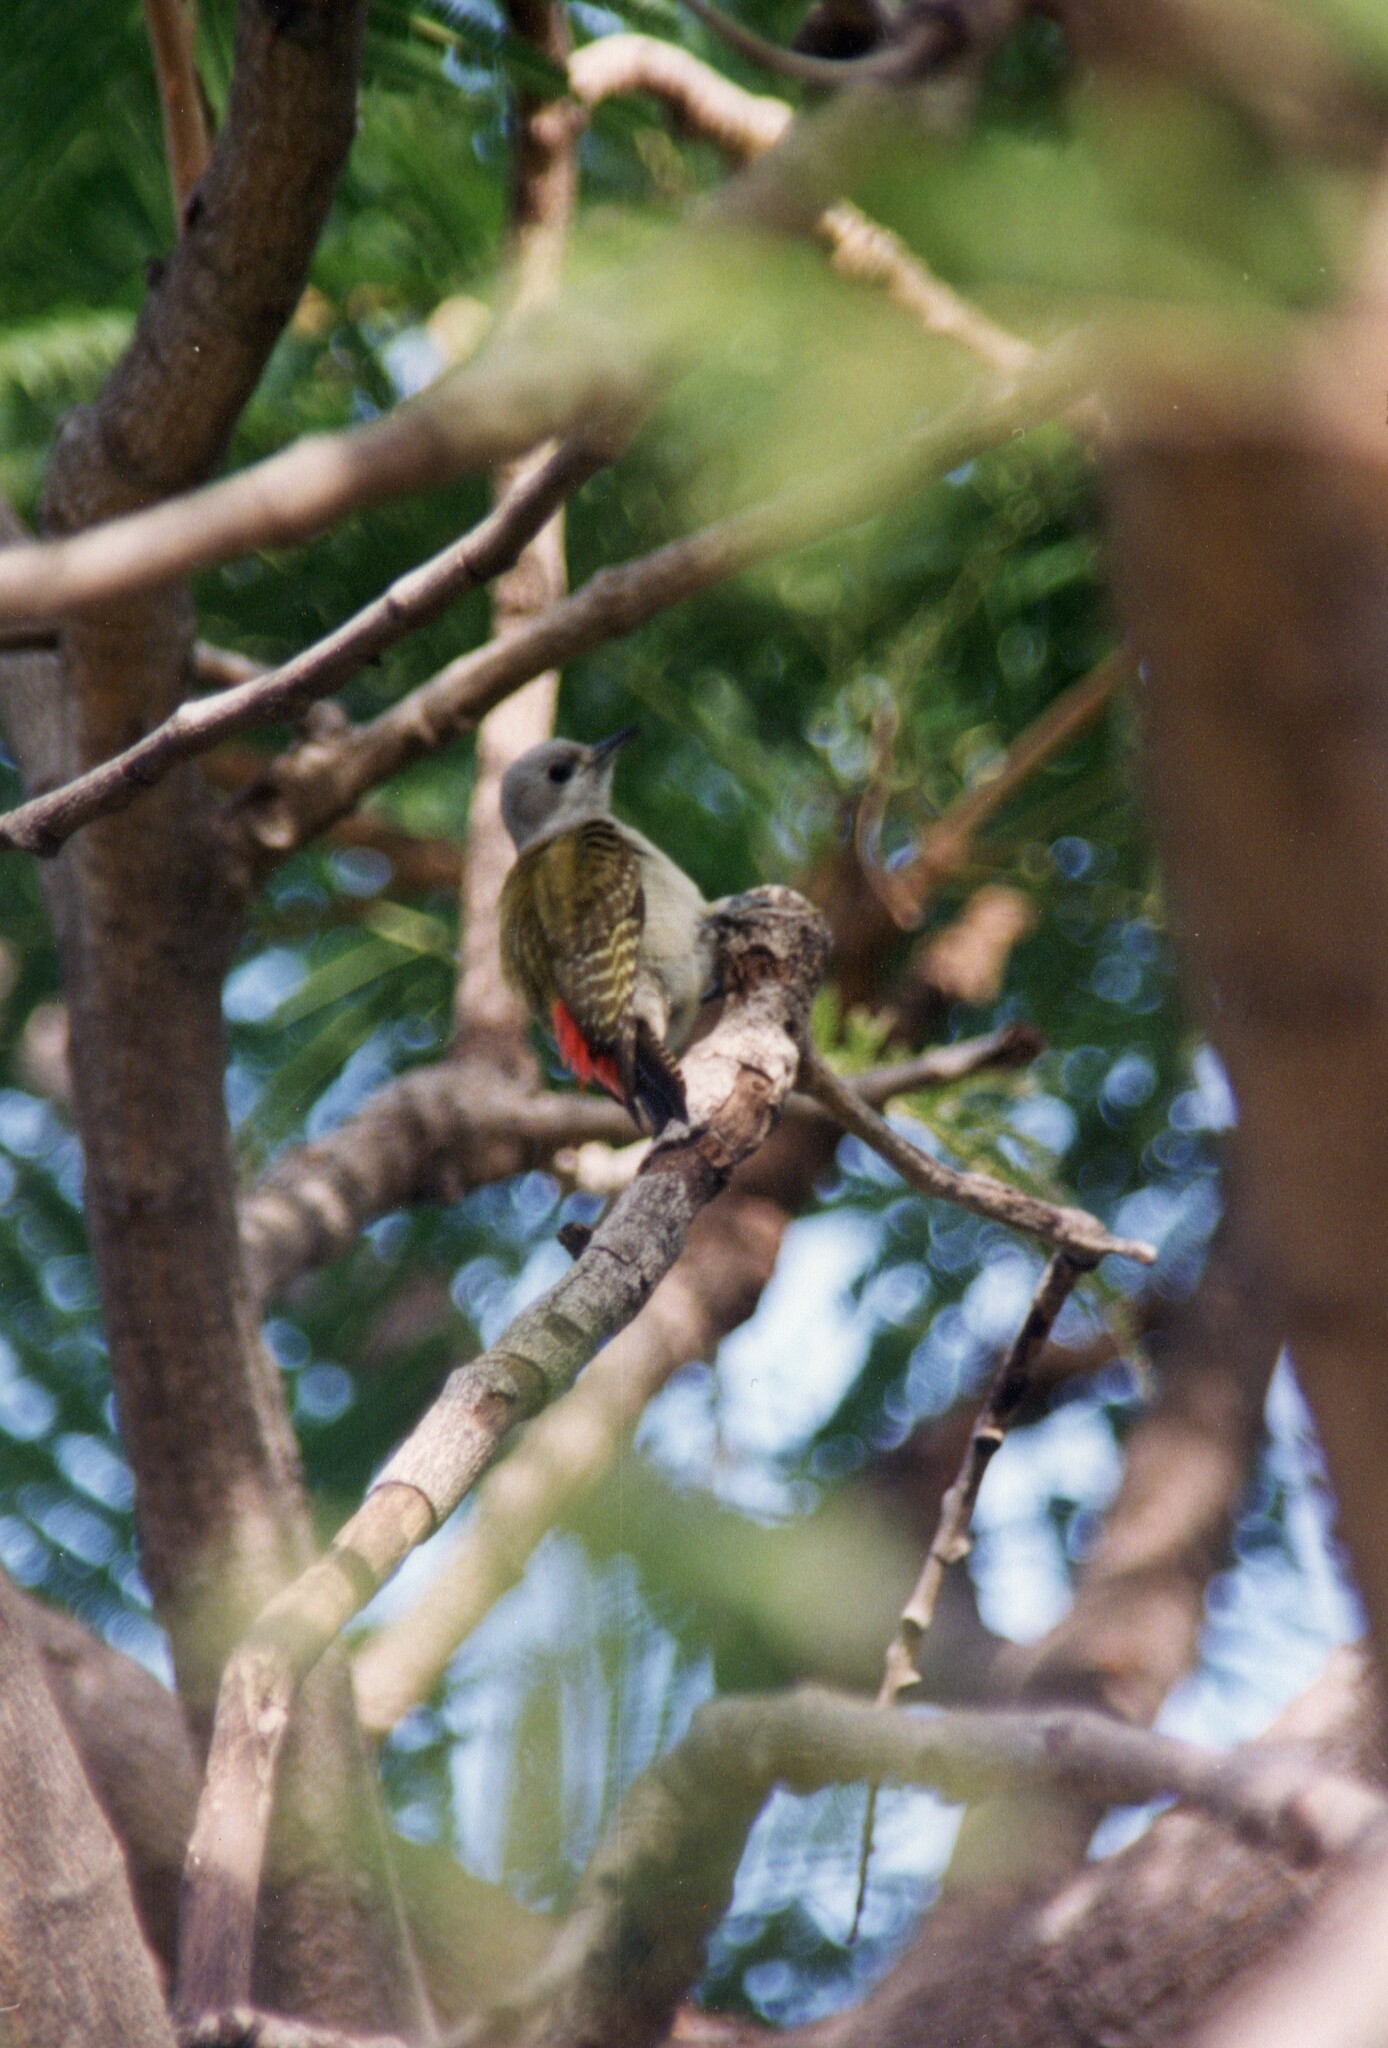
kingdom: Animalia
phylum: Chordata
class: Aves
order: Piciformes
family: Picidae
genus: Dendropicos
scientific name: Dendropicos goertae
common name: African grey woodpecker
